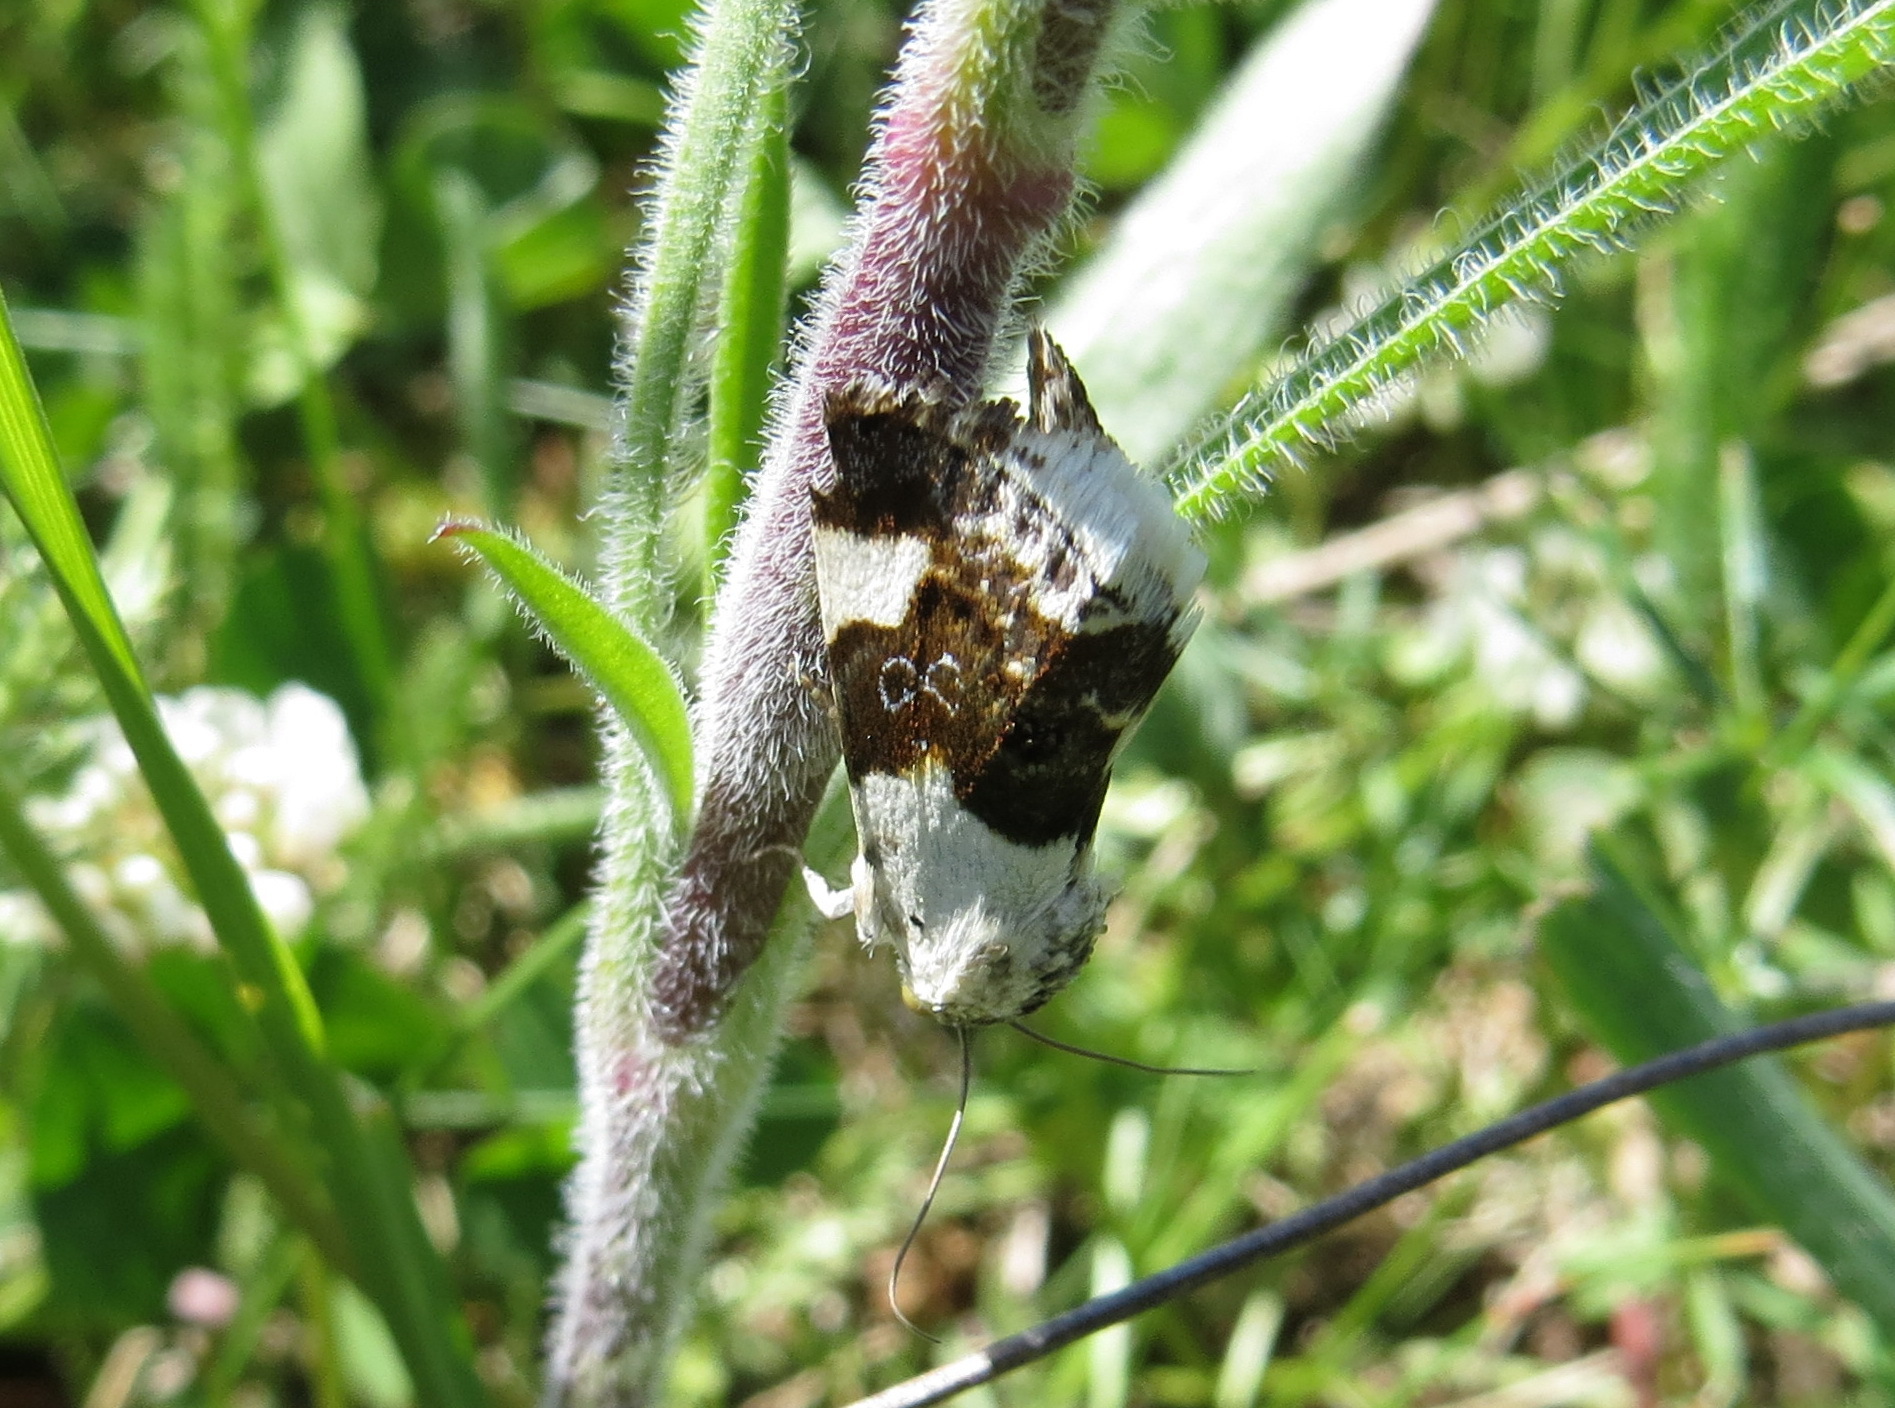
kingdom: Animalia
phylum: Arthropoda
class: Insecta
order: Lepidoptera
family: Noctuidae
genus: Acontia
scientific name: Acontia lucida
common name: Pale shoulder
